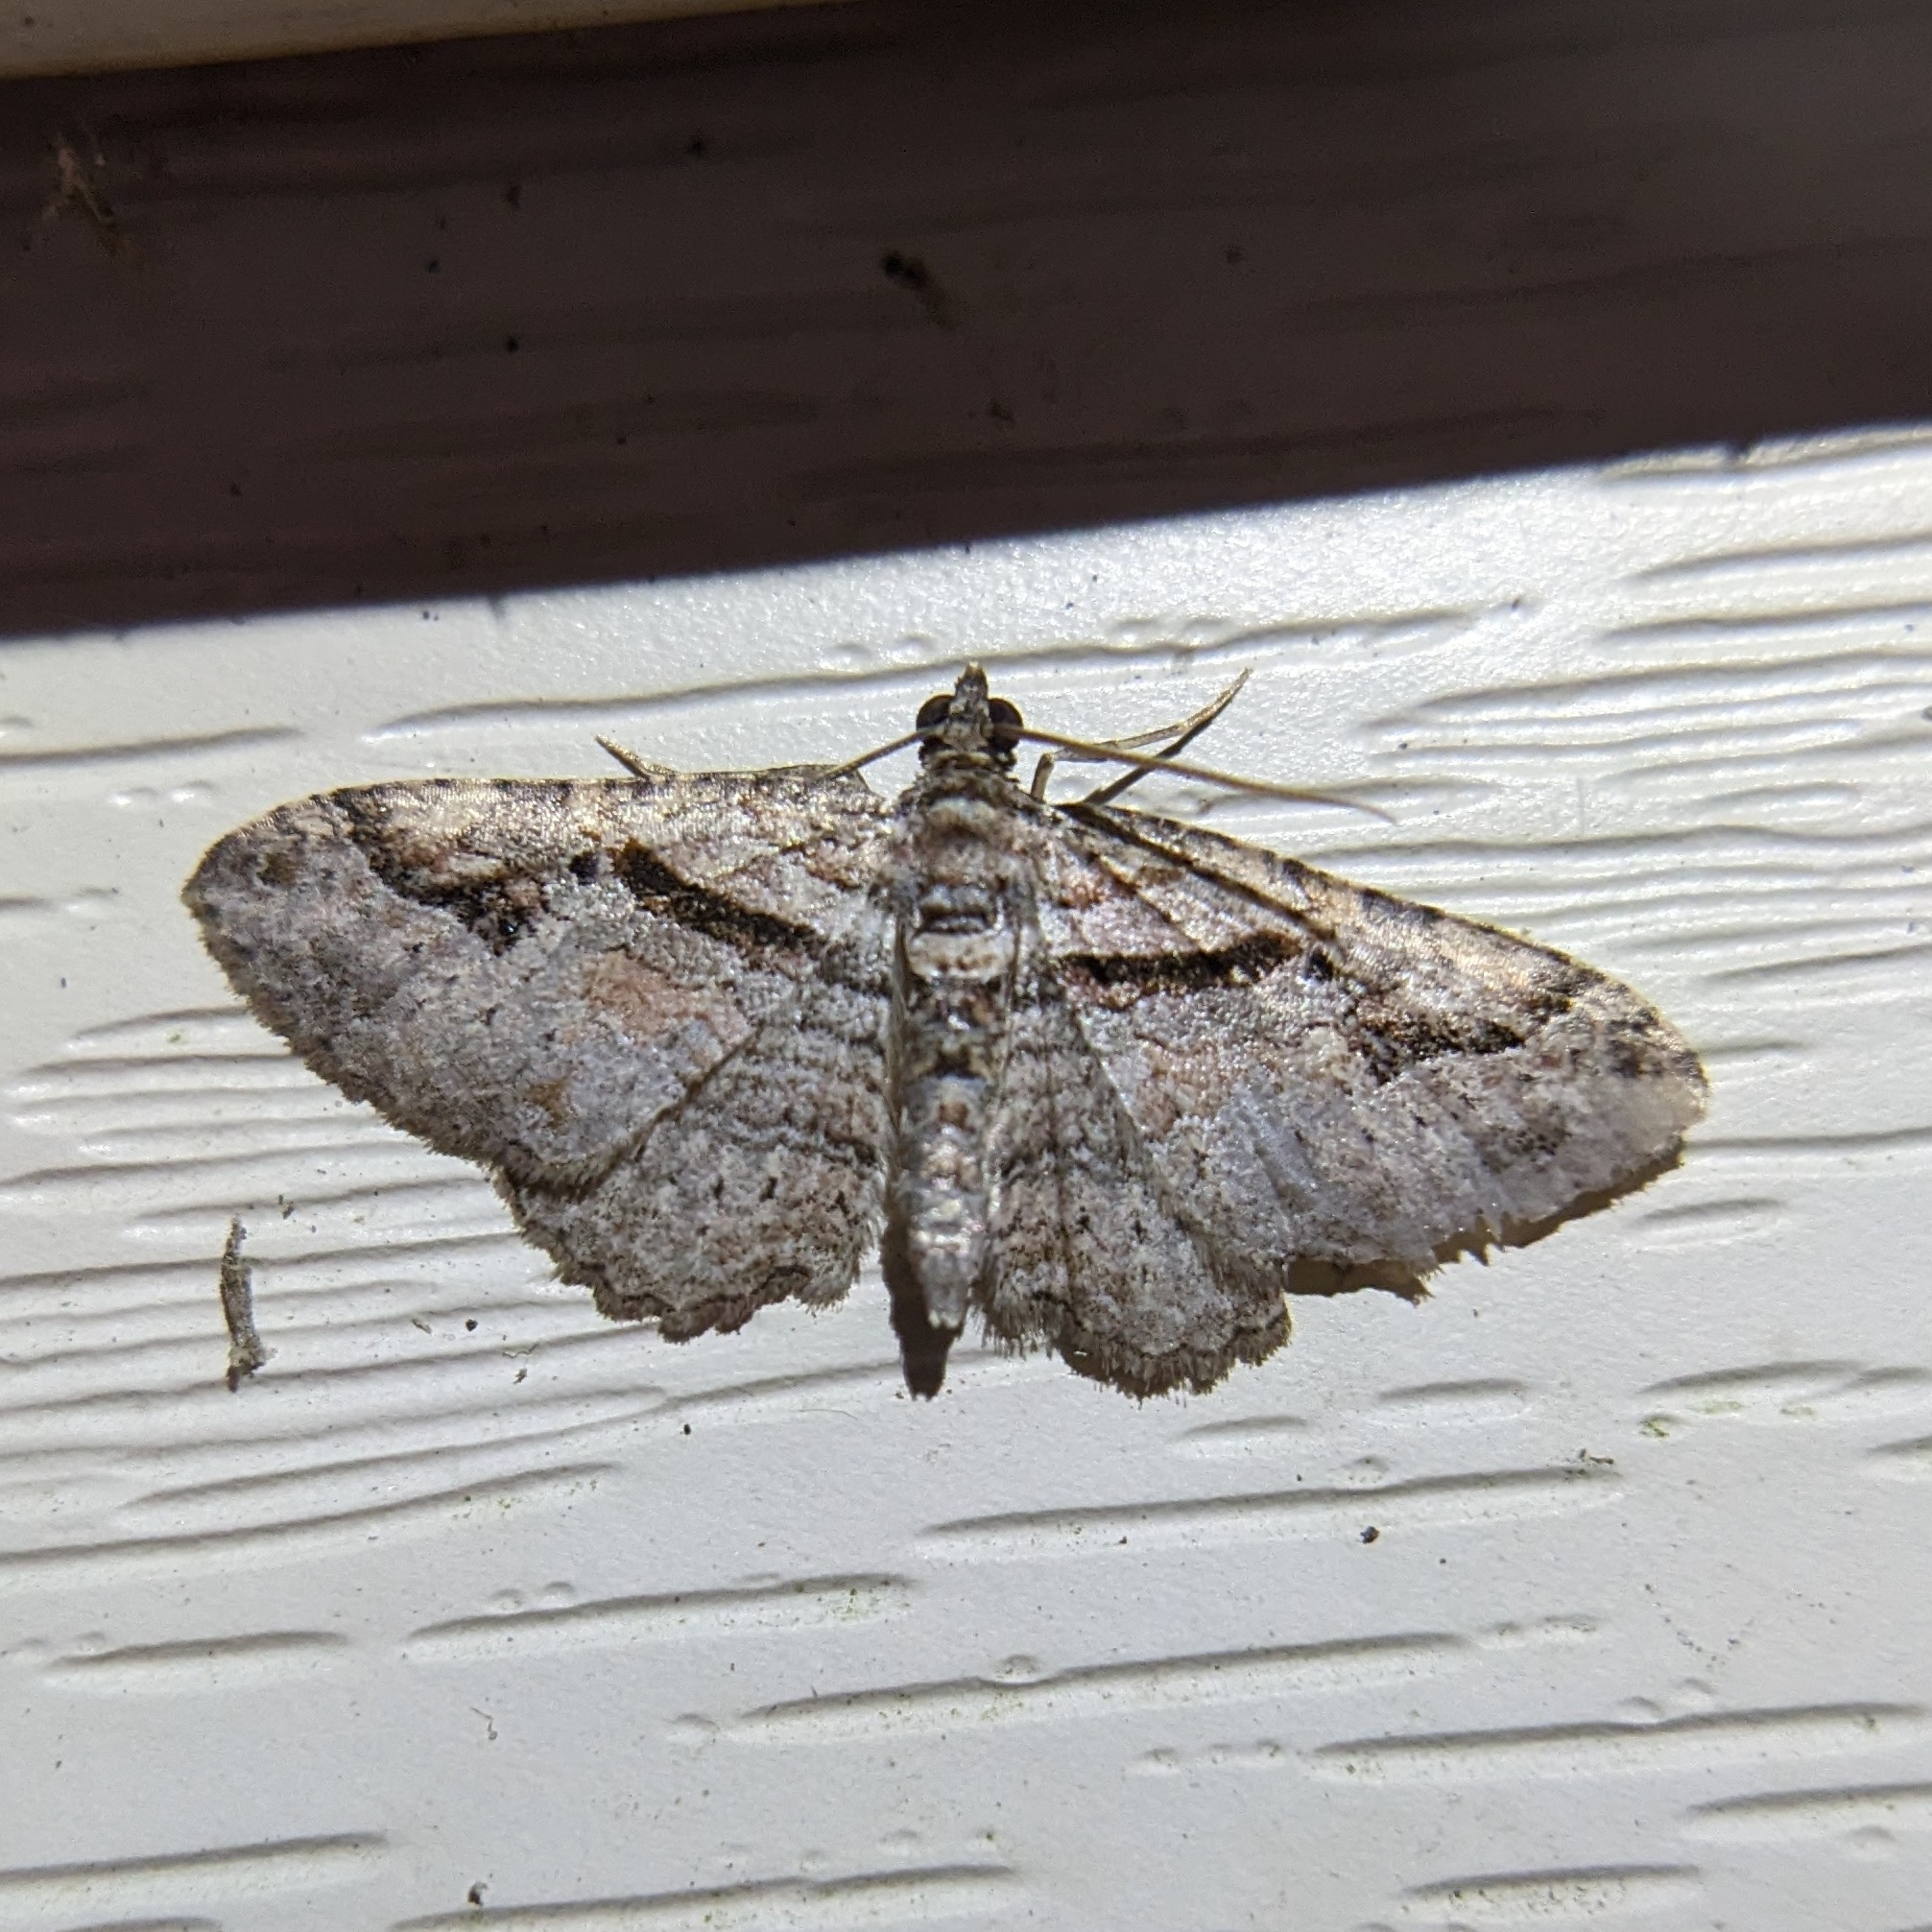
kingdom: Animalia
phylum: Arthropoda
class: Insecta
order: Lepidoptera
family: Geometridae
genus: Costaconvexa
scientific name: Costaconvexa centrostrigaria
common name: Bent-line carpet
